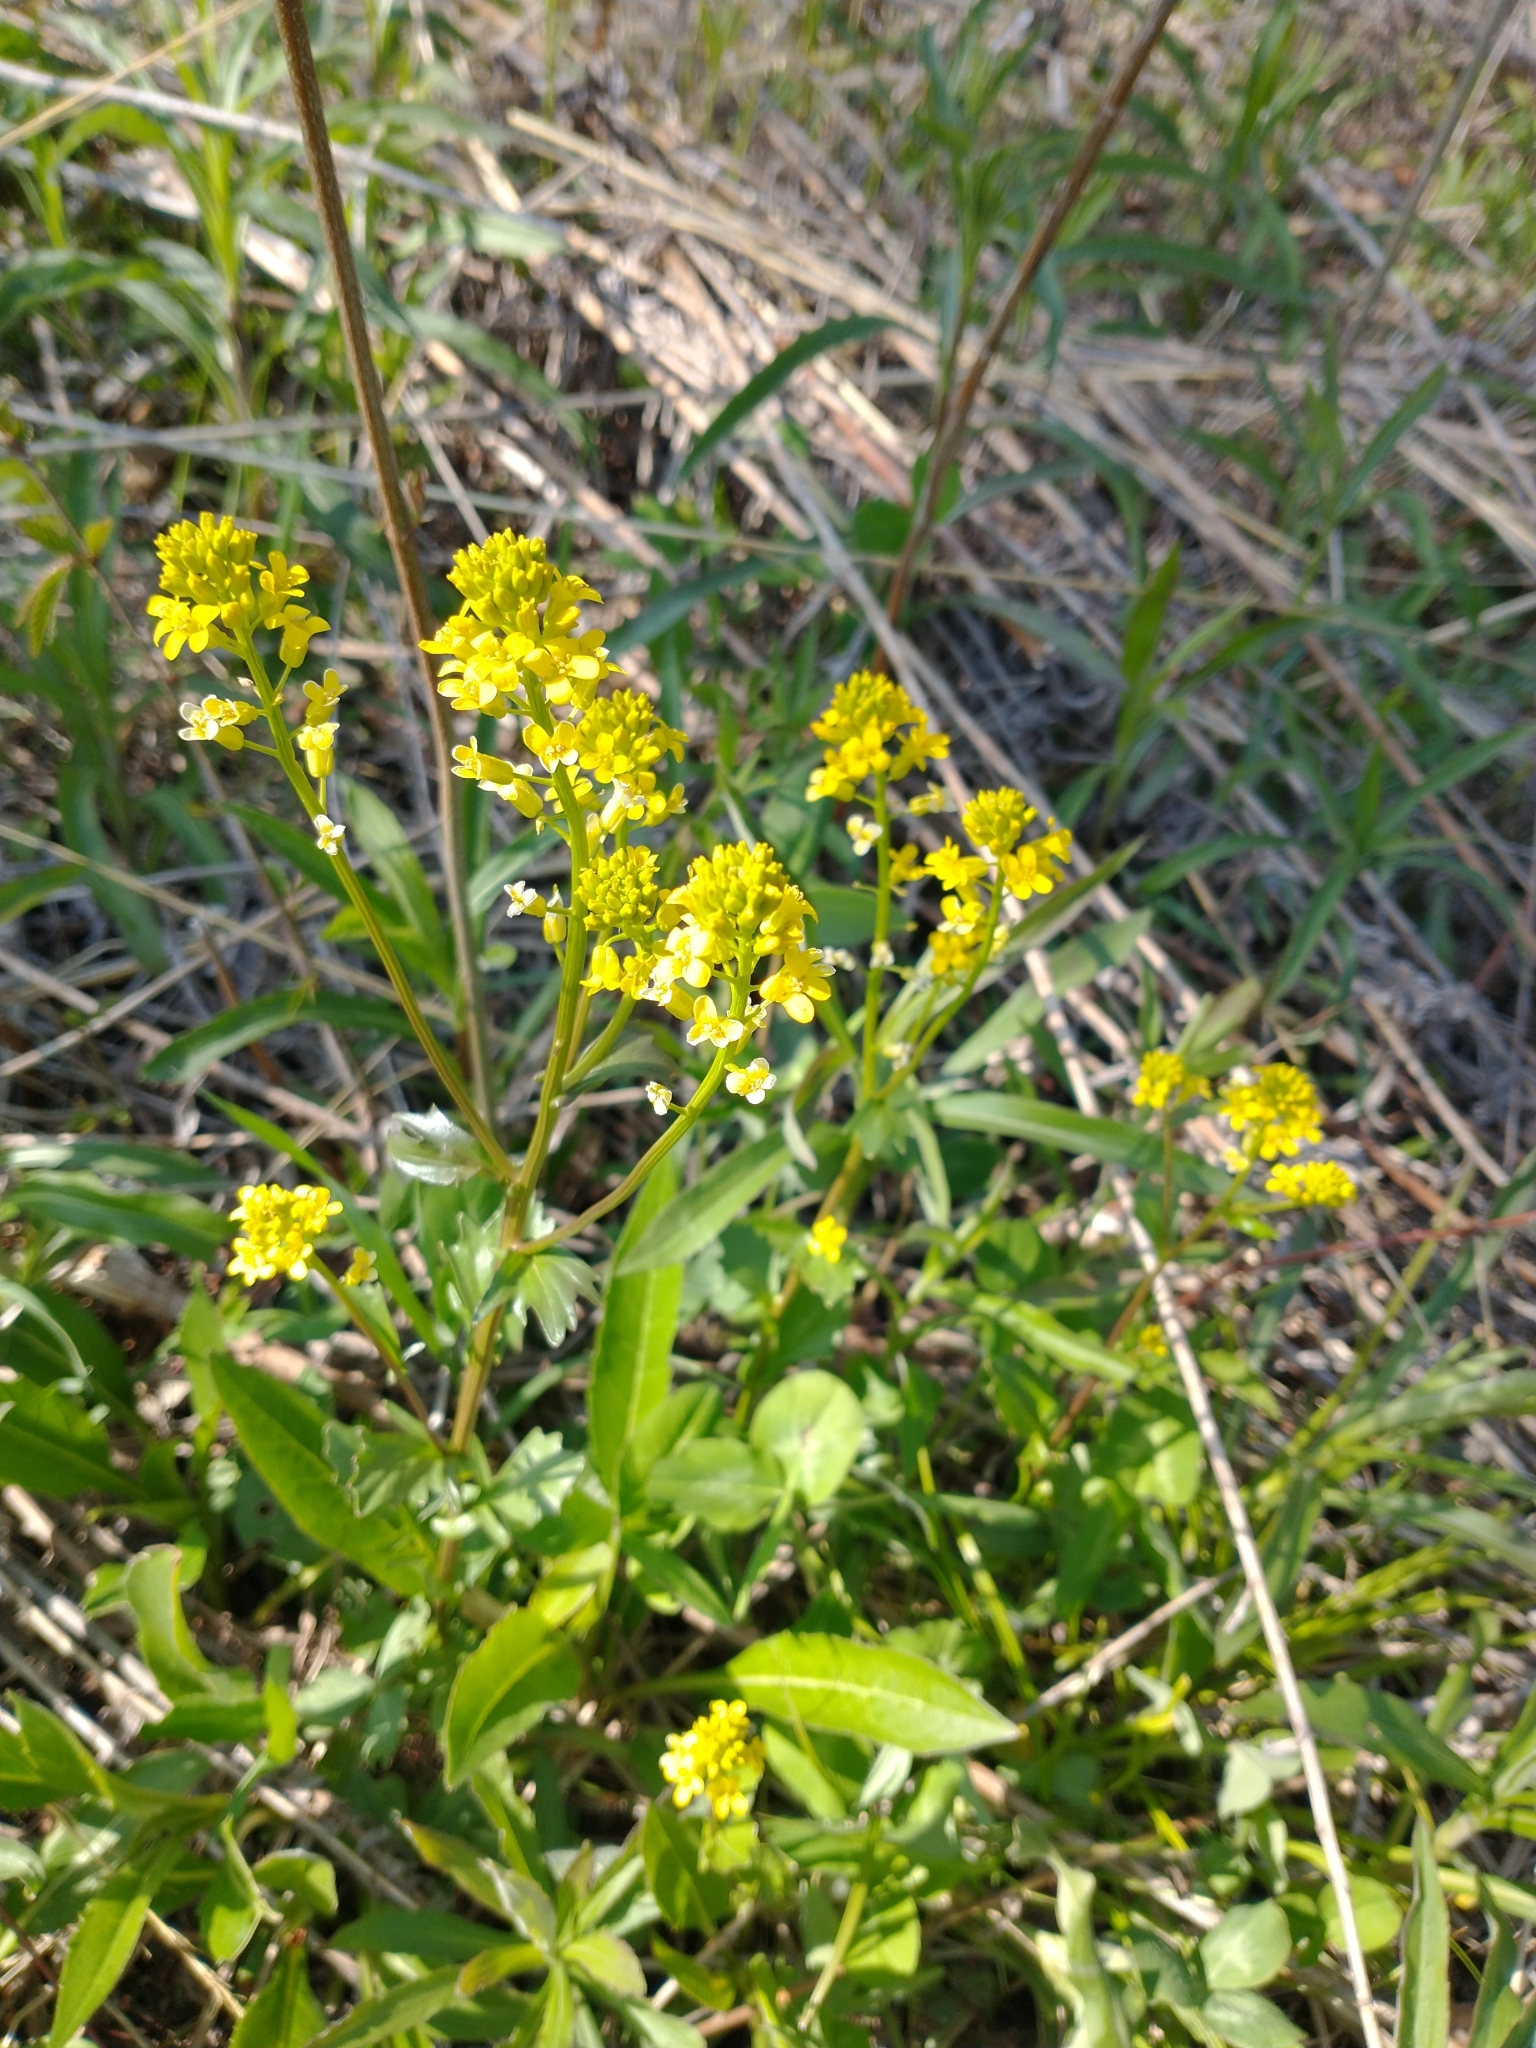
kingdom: Plantae
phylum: Tracheophyta
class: Magnoliopsida
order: Brassicales
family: Brassicaceae
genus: Barbarea
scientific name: Barbarea vulgaris
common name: Cressy-greens
